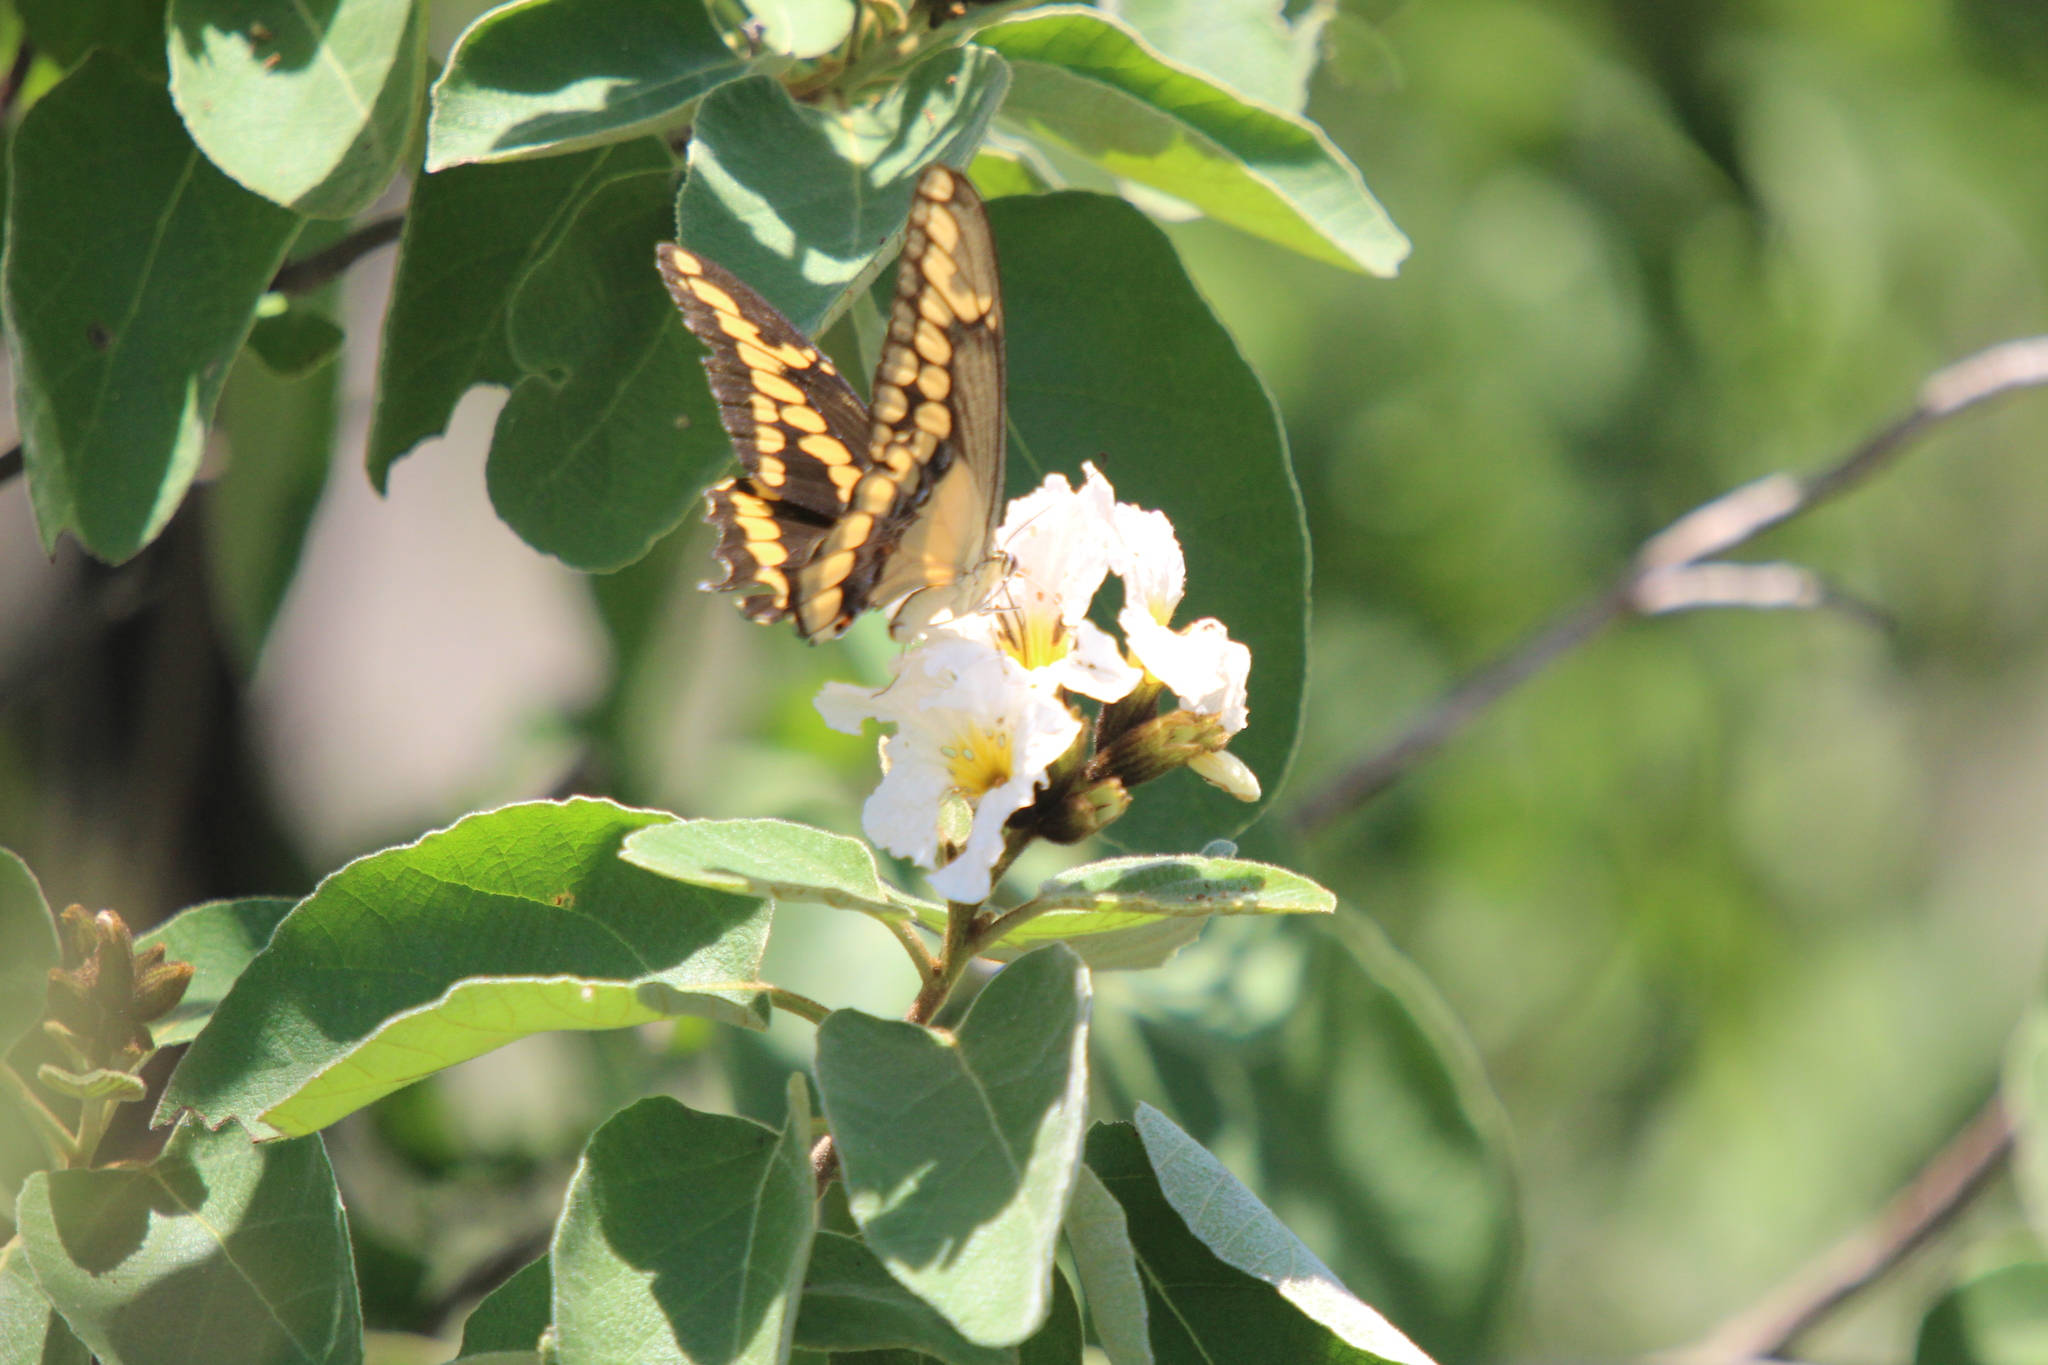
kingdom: Animalia
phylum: Arthropoda
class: Insecta
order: Lepidoptera
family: Papilionidae
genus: Papilio
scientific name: Papilio rumiko
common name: Western giant swallowtail
